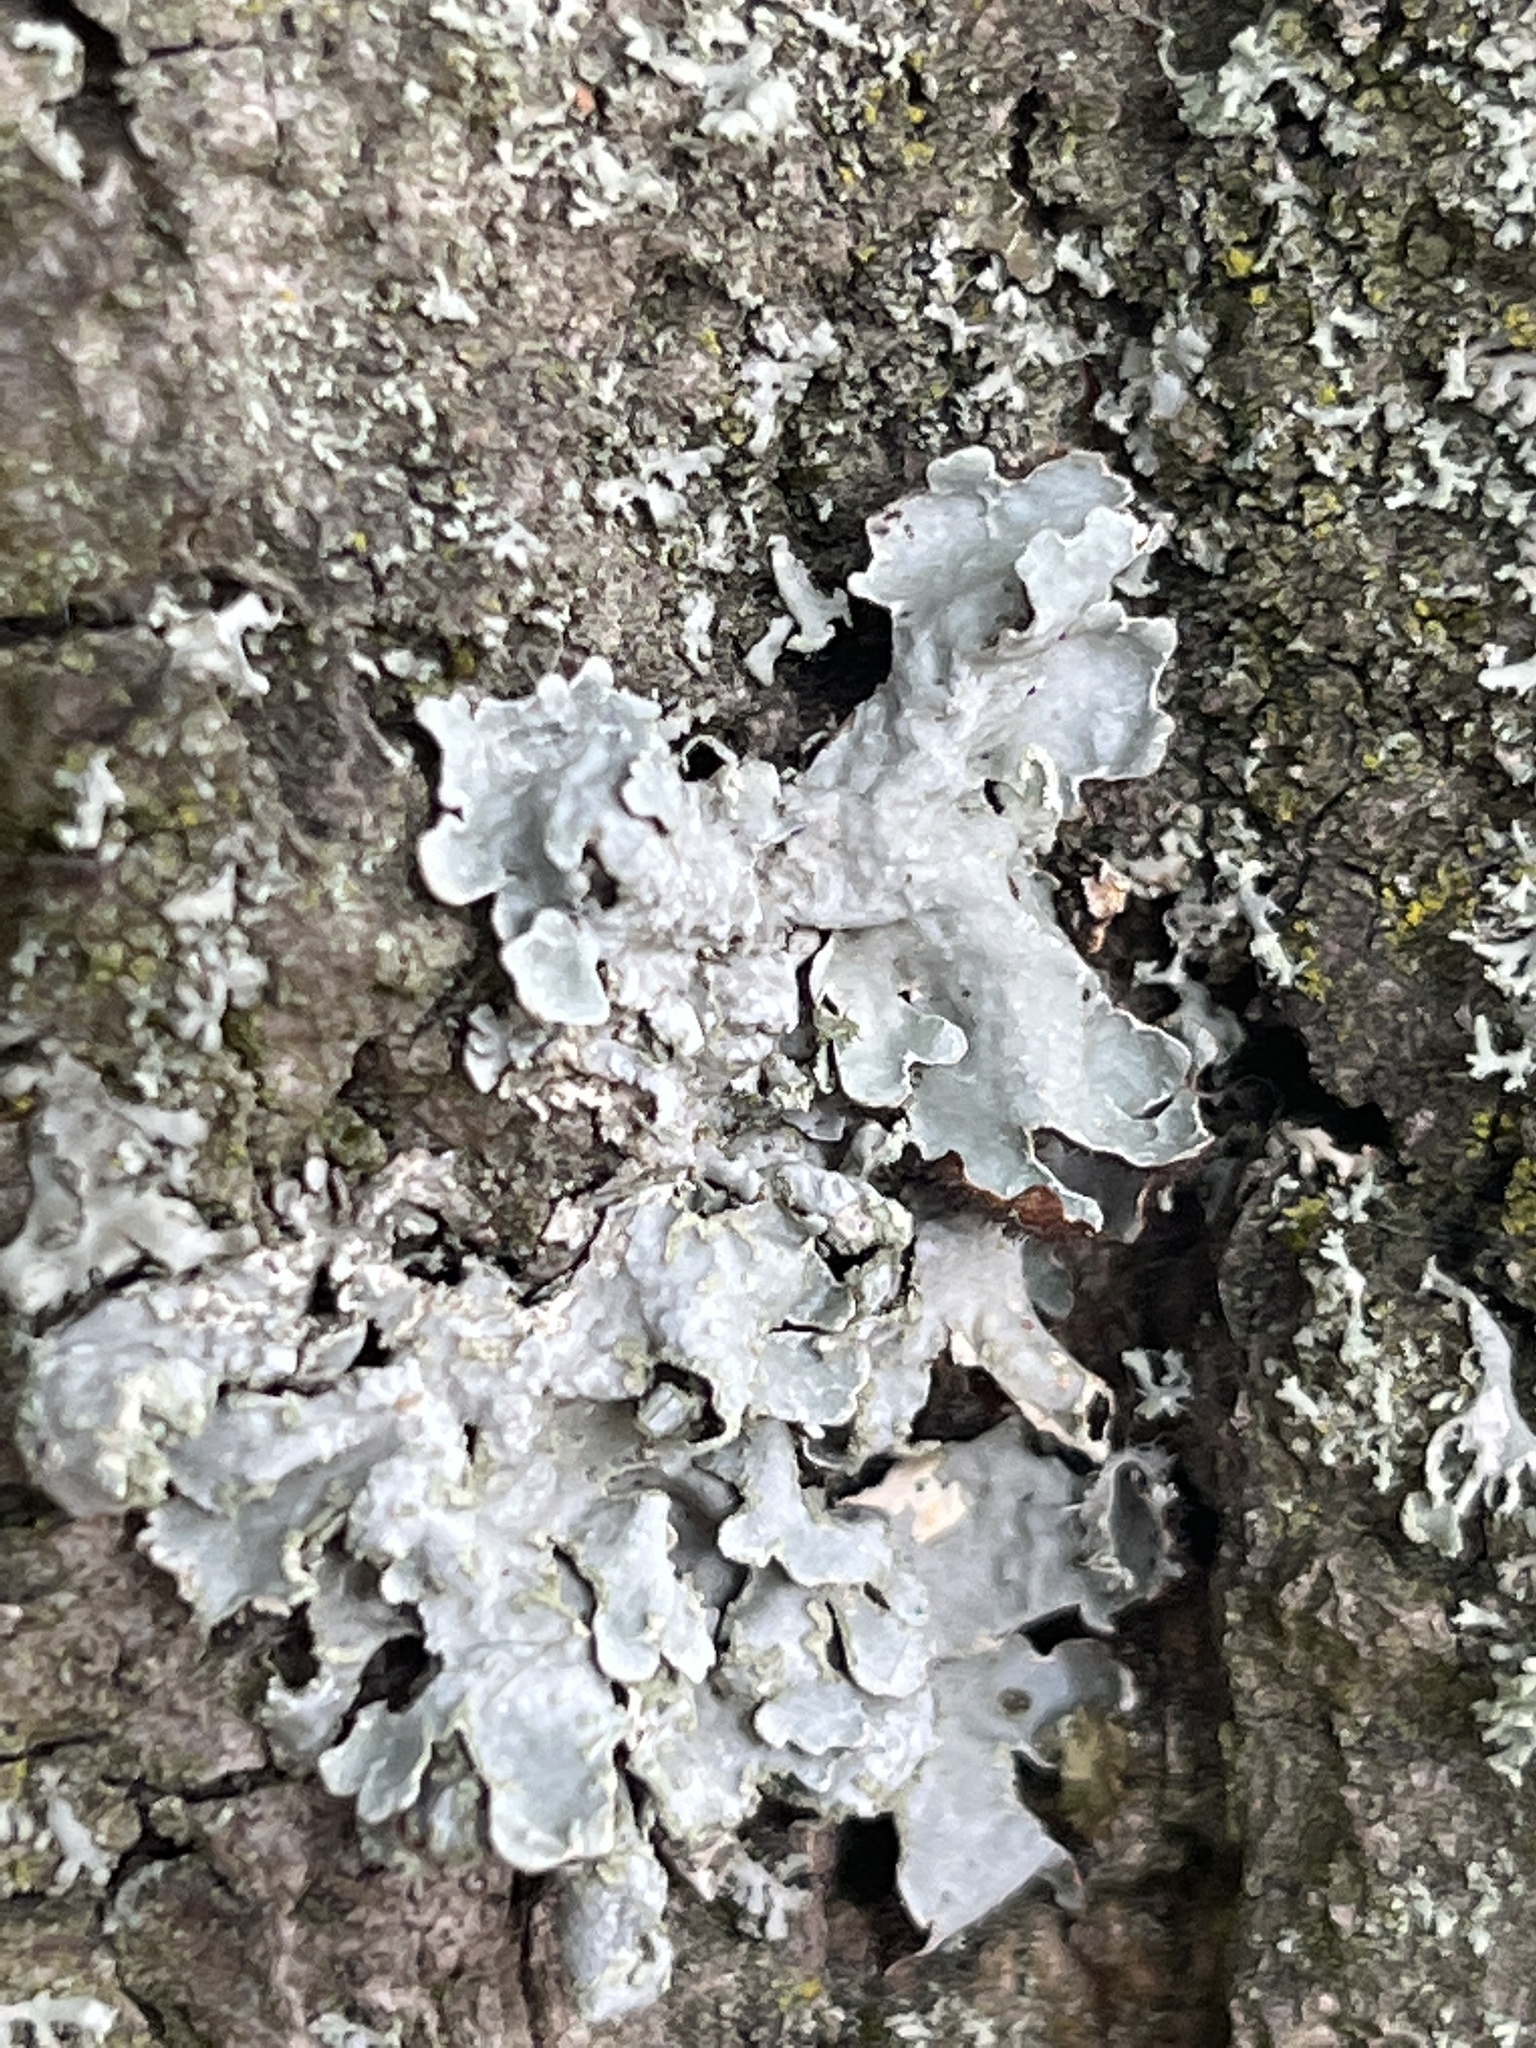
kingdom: Fungi
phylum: Ascomycota
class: Lecanoromycetes
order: Lecanorales
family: Parmeliaceae
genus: Parmelia
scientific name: Parmelia sulcata
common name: Netted shield lichen
